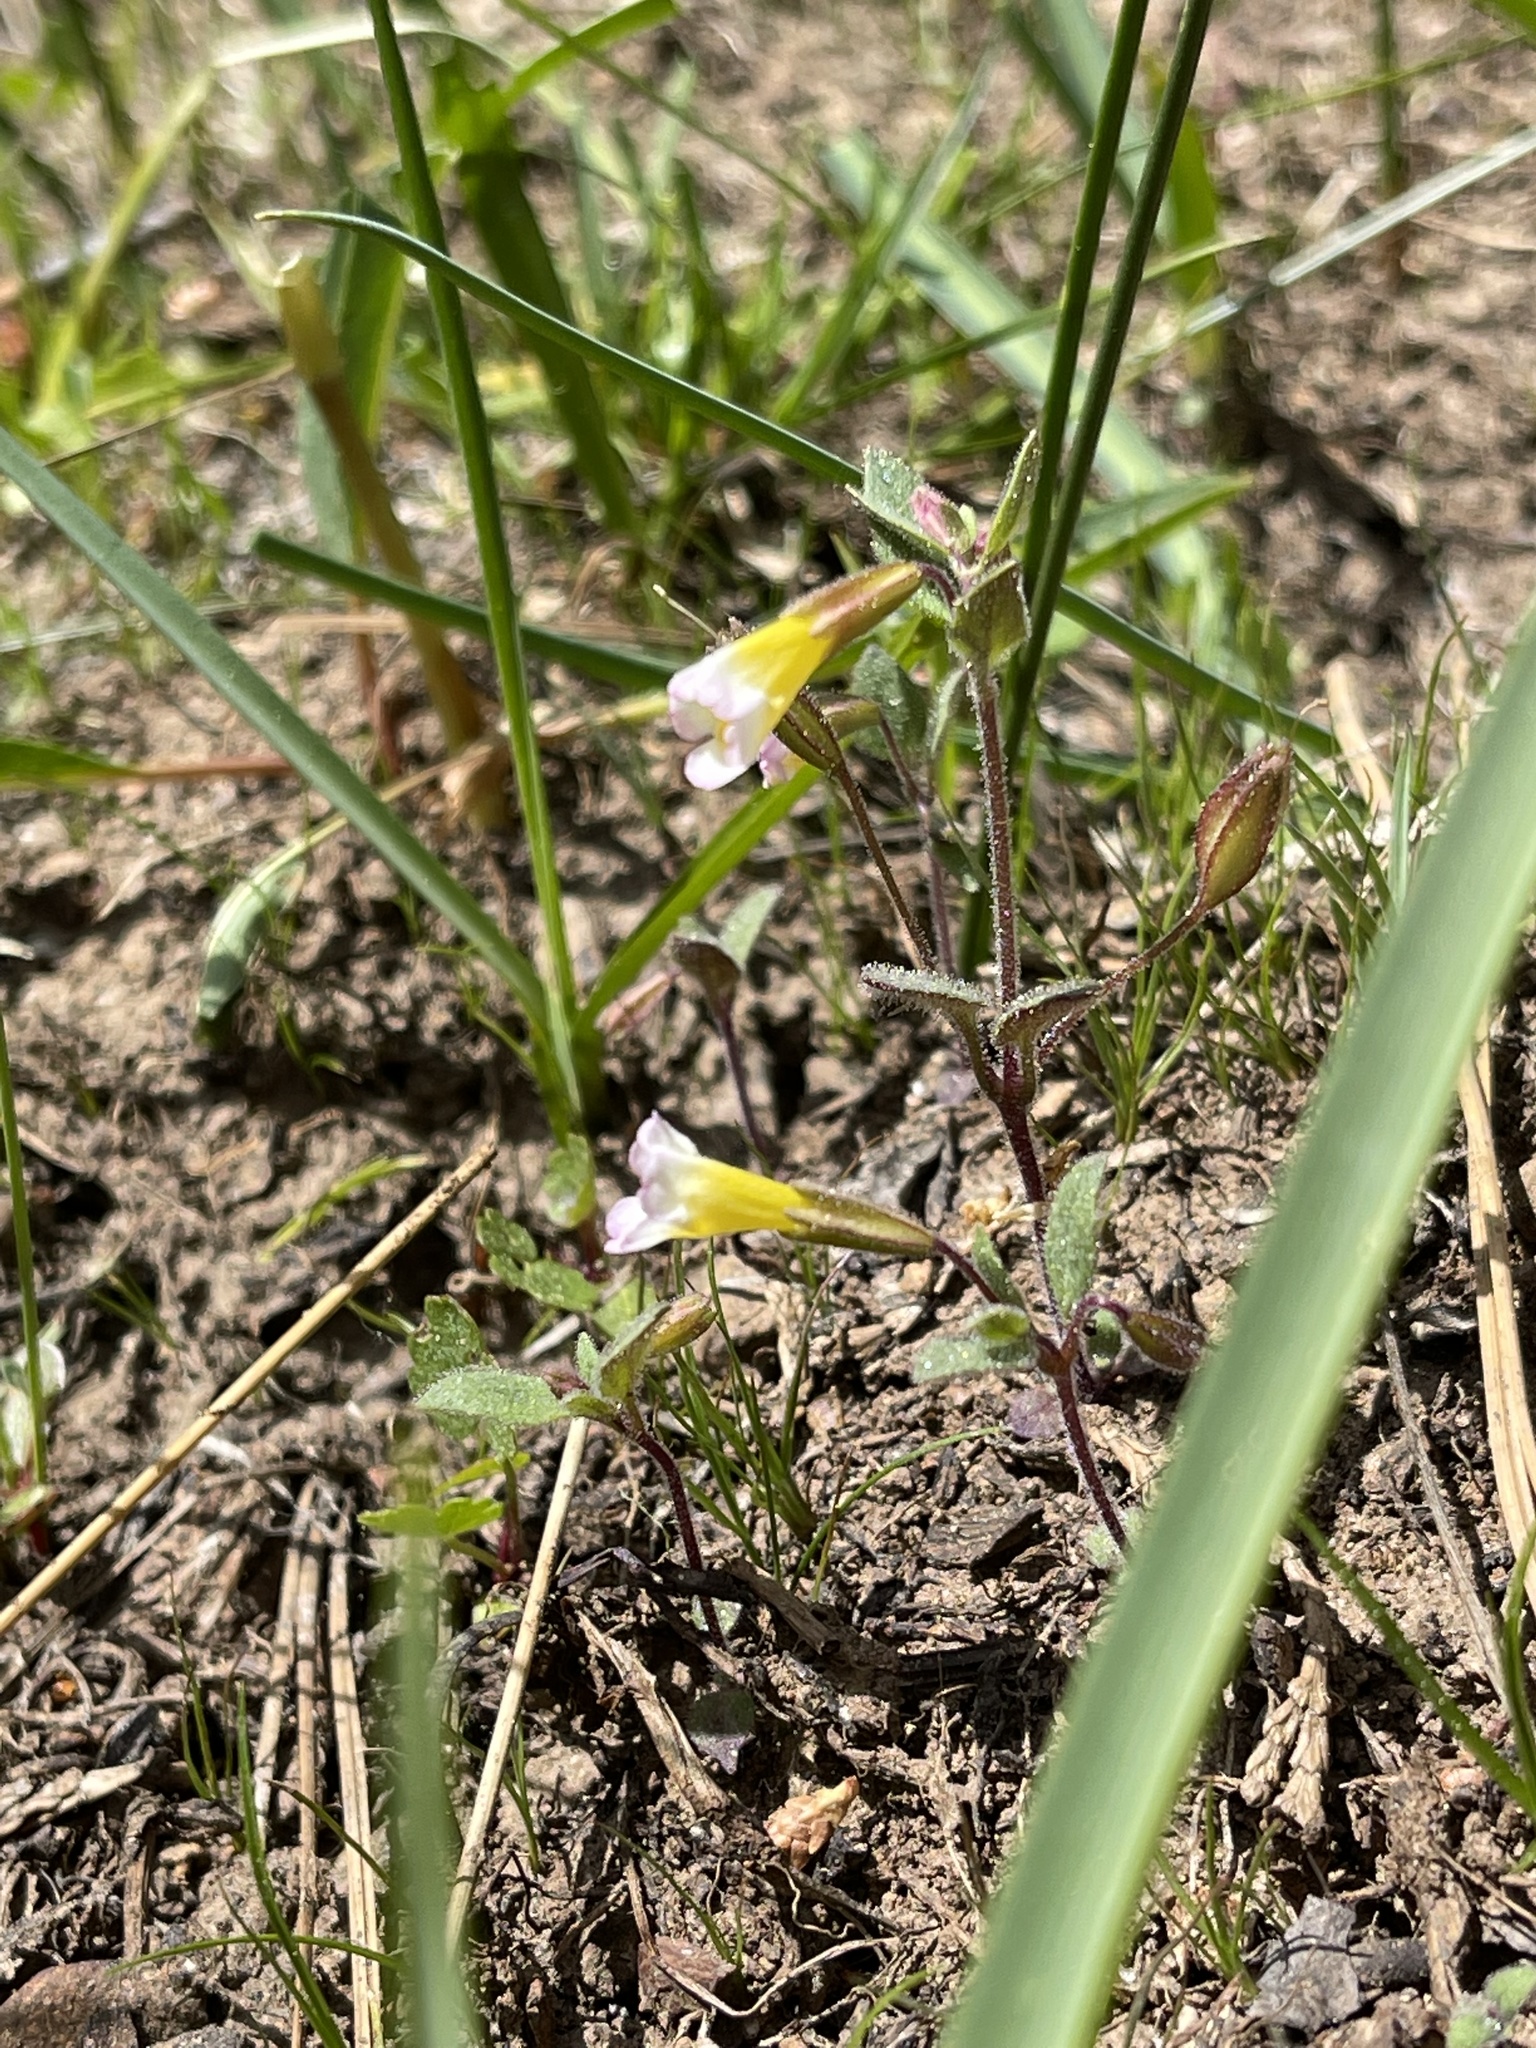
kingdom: Plantae
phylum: Tracheophyta
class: Magnoliopsida
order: Lamiales
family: Phrymaceae
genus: Erythranthe
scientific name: Erythranthe trinitiensis
